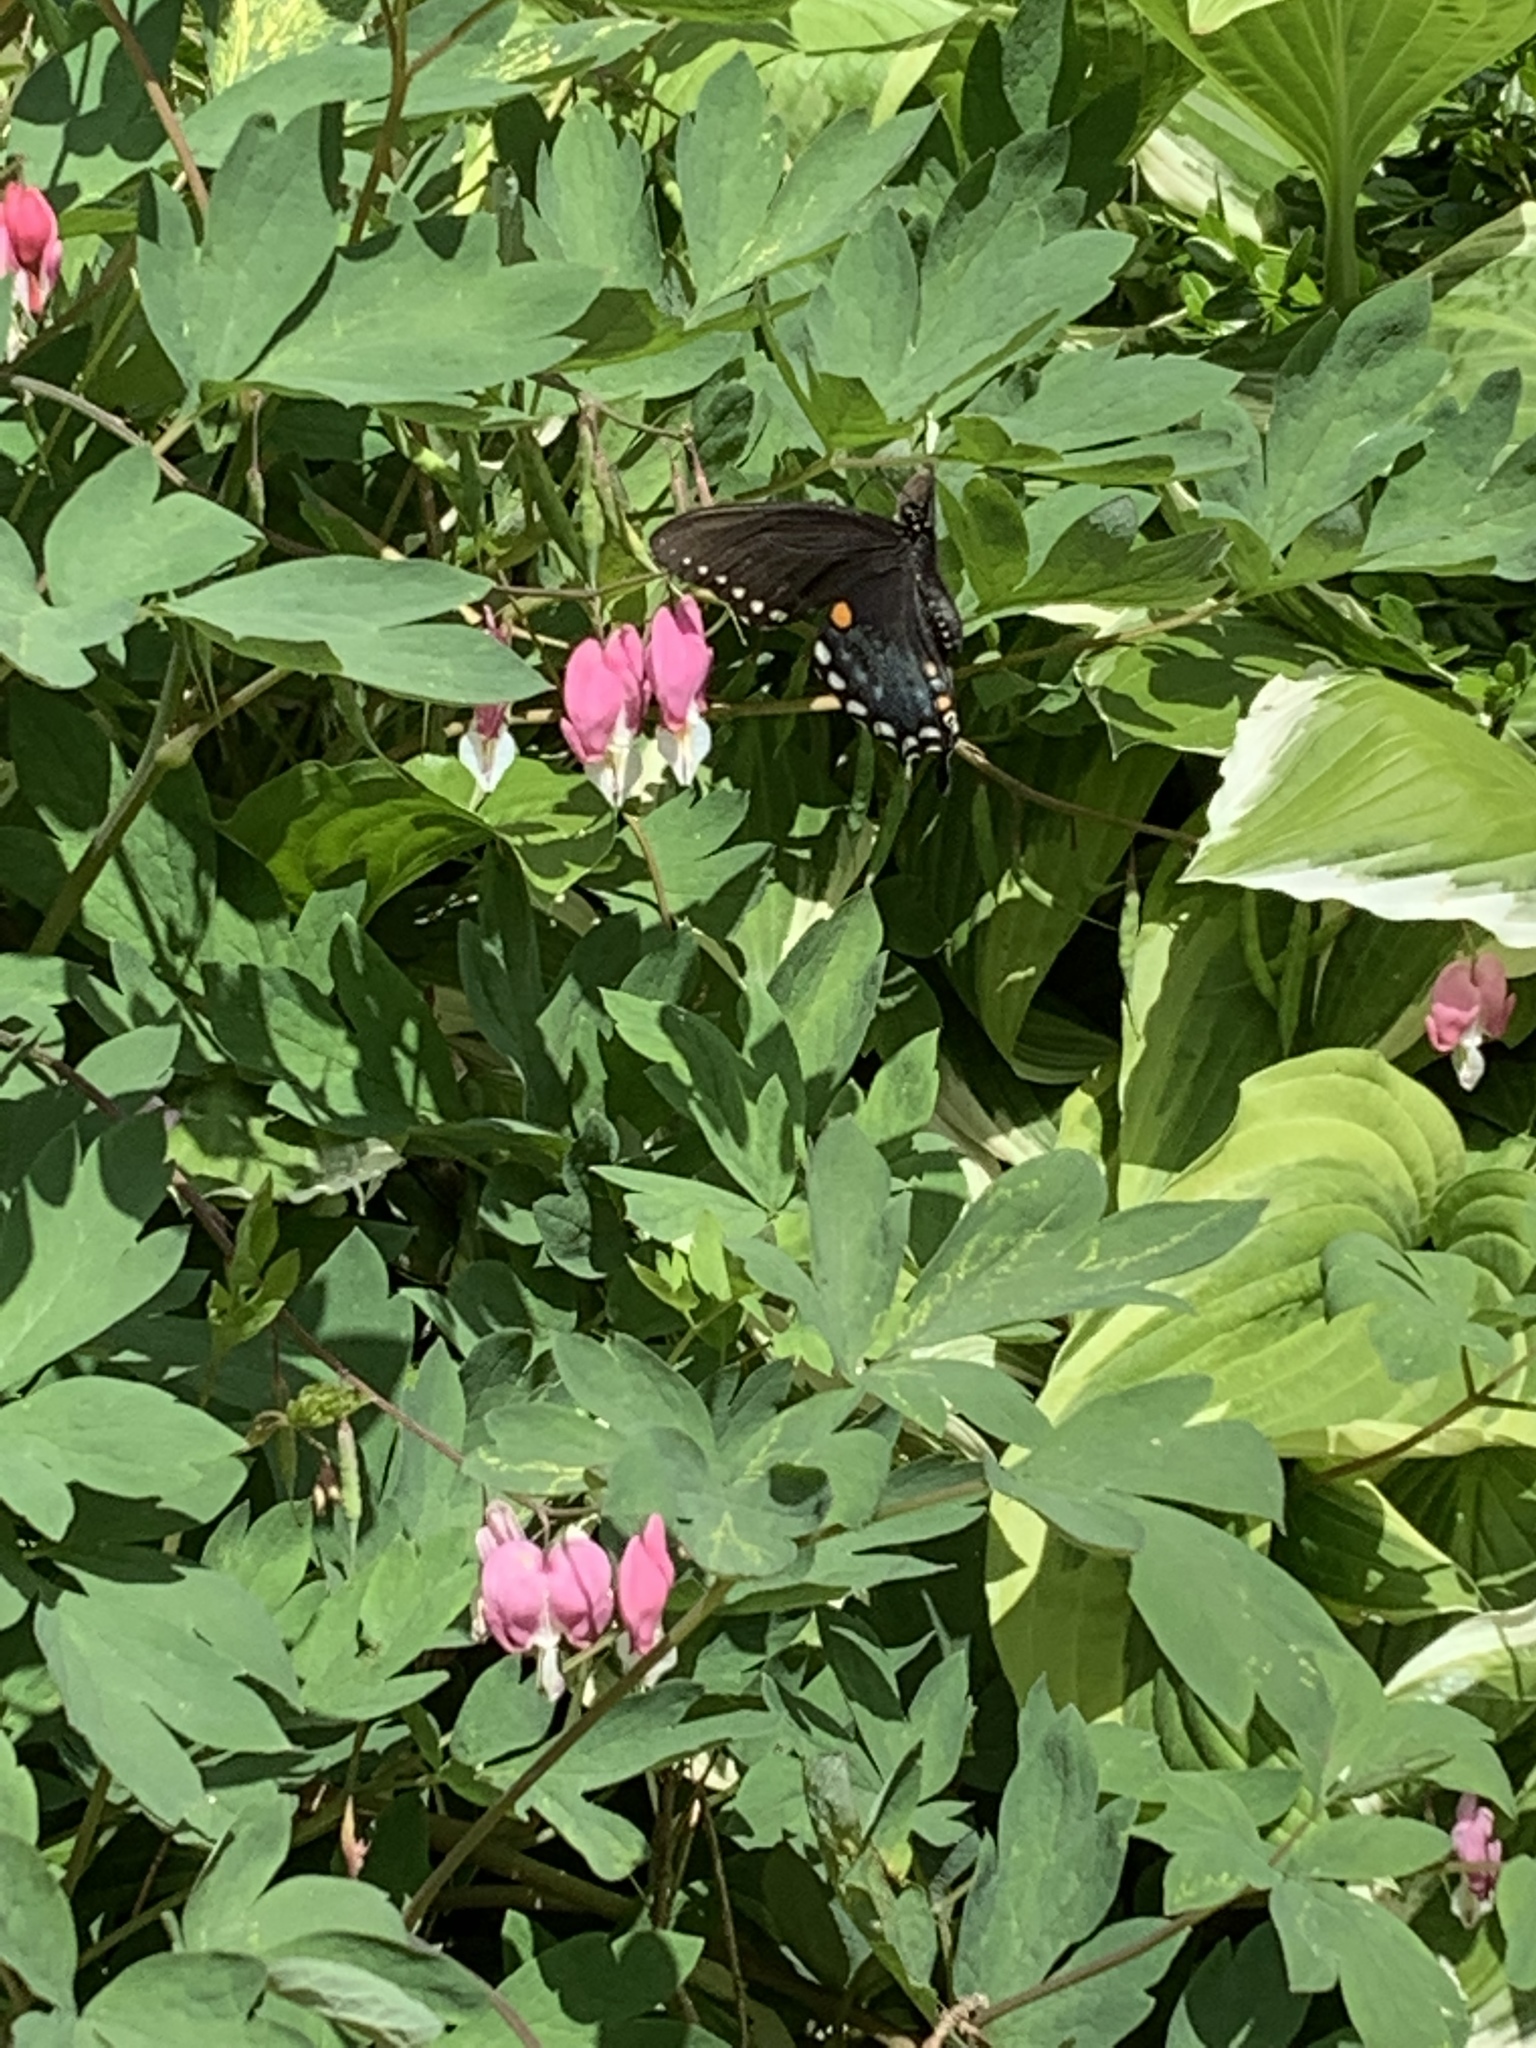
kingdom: Animalia
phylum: Arthropoda
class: Insecta
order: Lepidoptera
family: Papilionidae
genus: Papilio
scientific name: Papilio troilus
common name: Spicebush swallowtail
